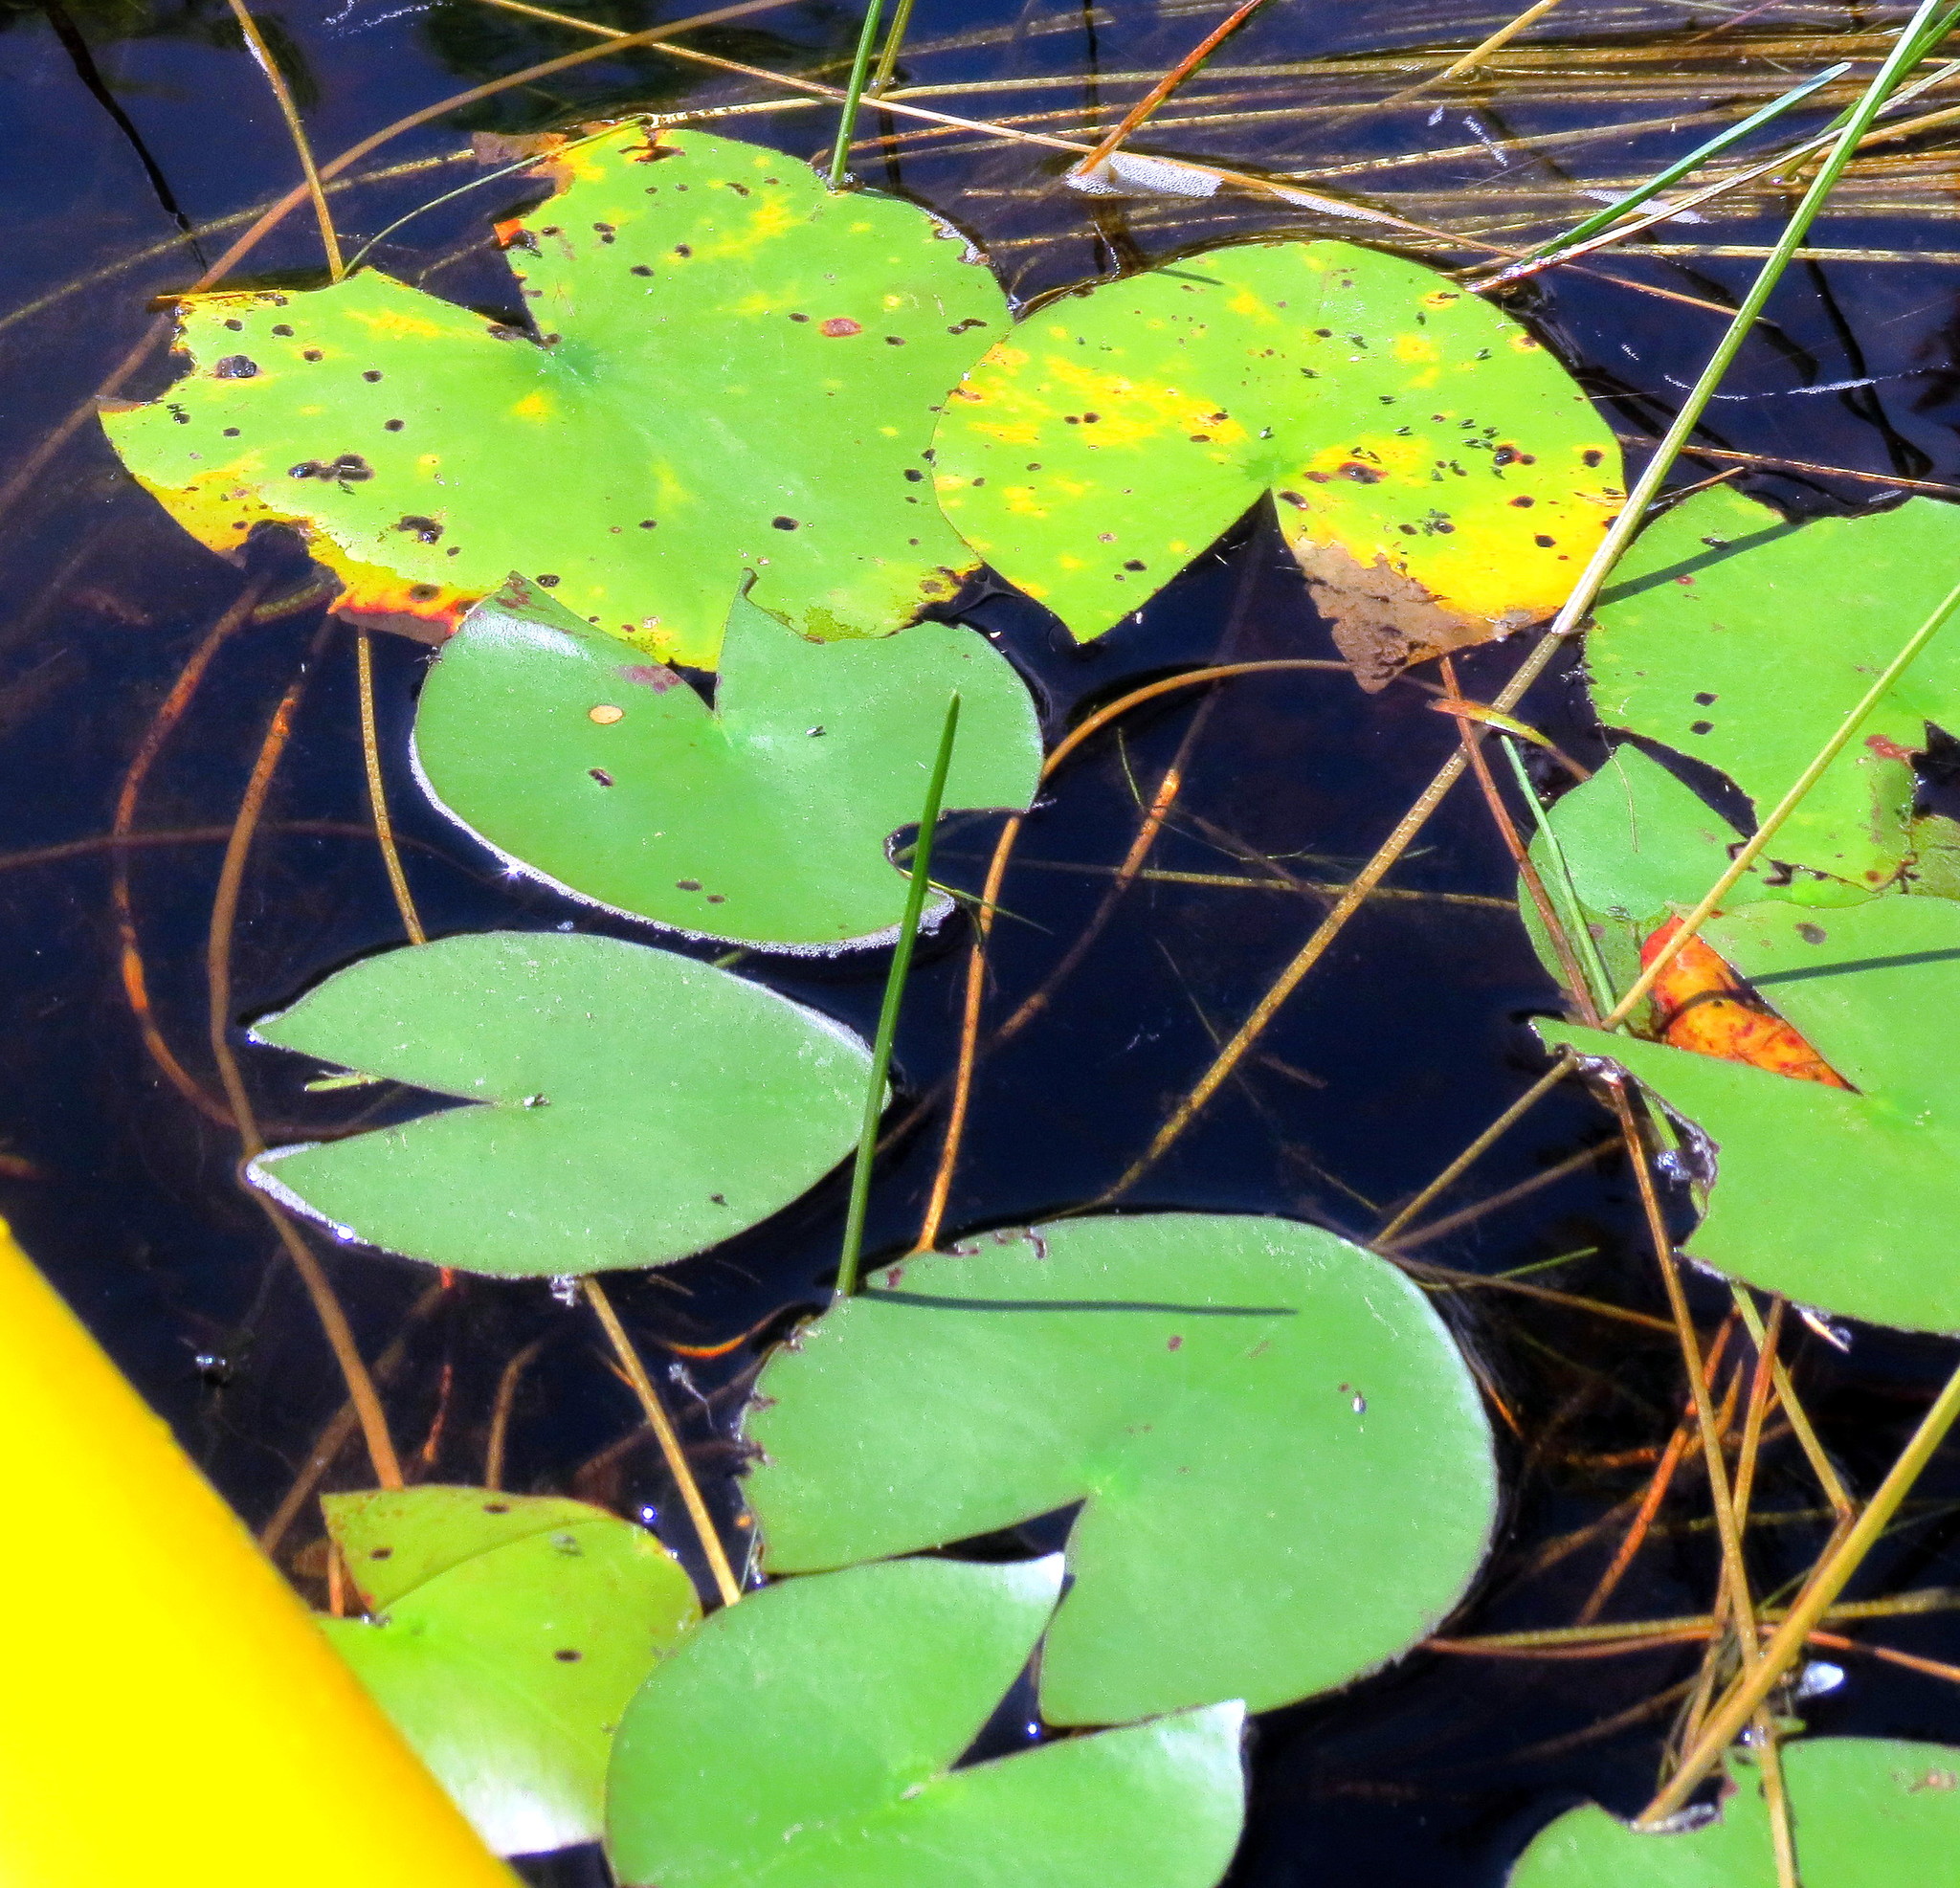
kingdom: Plantae
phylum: Tracheophyta
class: Magnoliopsida
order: Nymphaeales
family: Nymphaeaceae
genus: Nymphaea
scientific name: Nymphaea odorata
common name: Fragrant water-lily
